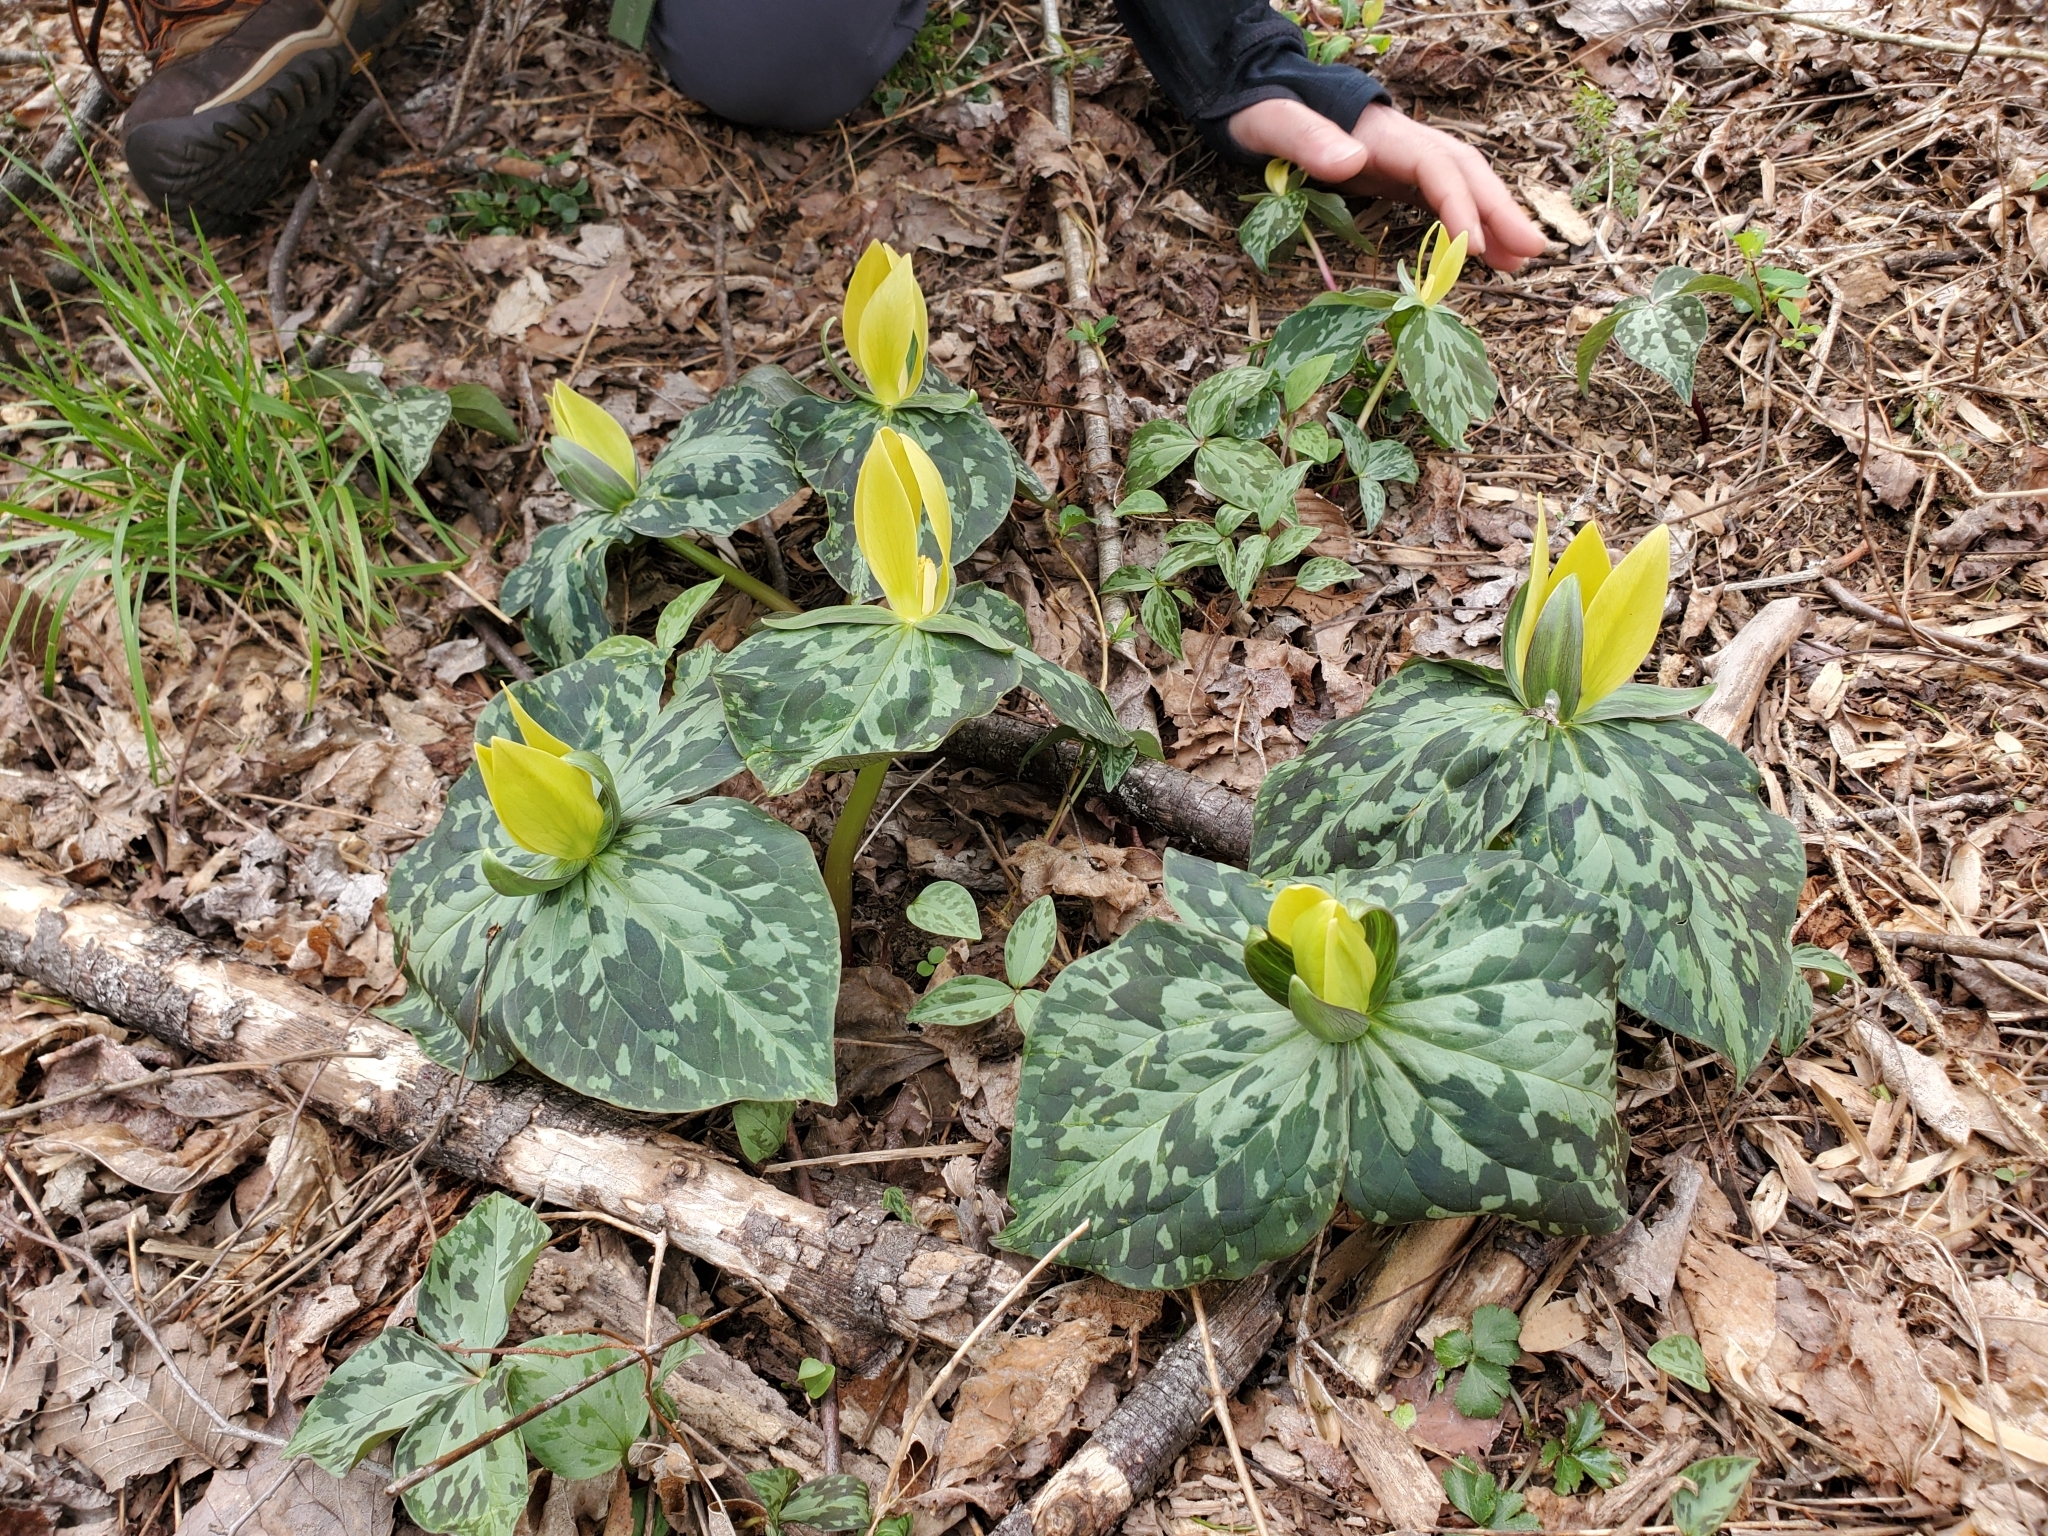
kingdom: Plantae
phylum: Tracheophyta
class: Liliopsida
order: Liliales
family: Melanthiaceae
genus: Trillium
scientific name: Trillium luteum
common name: Wax trillium
